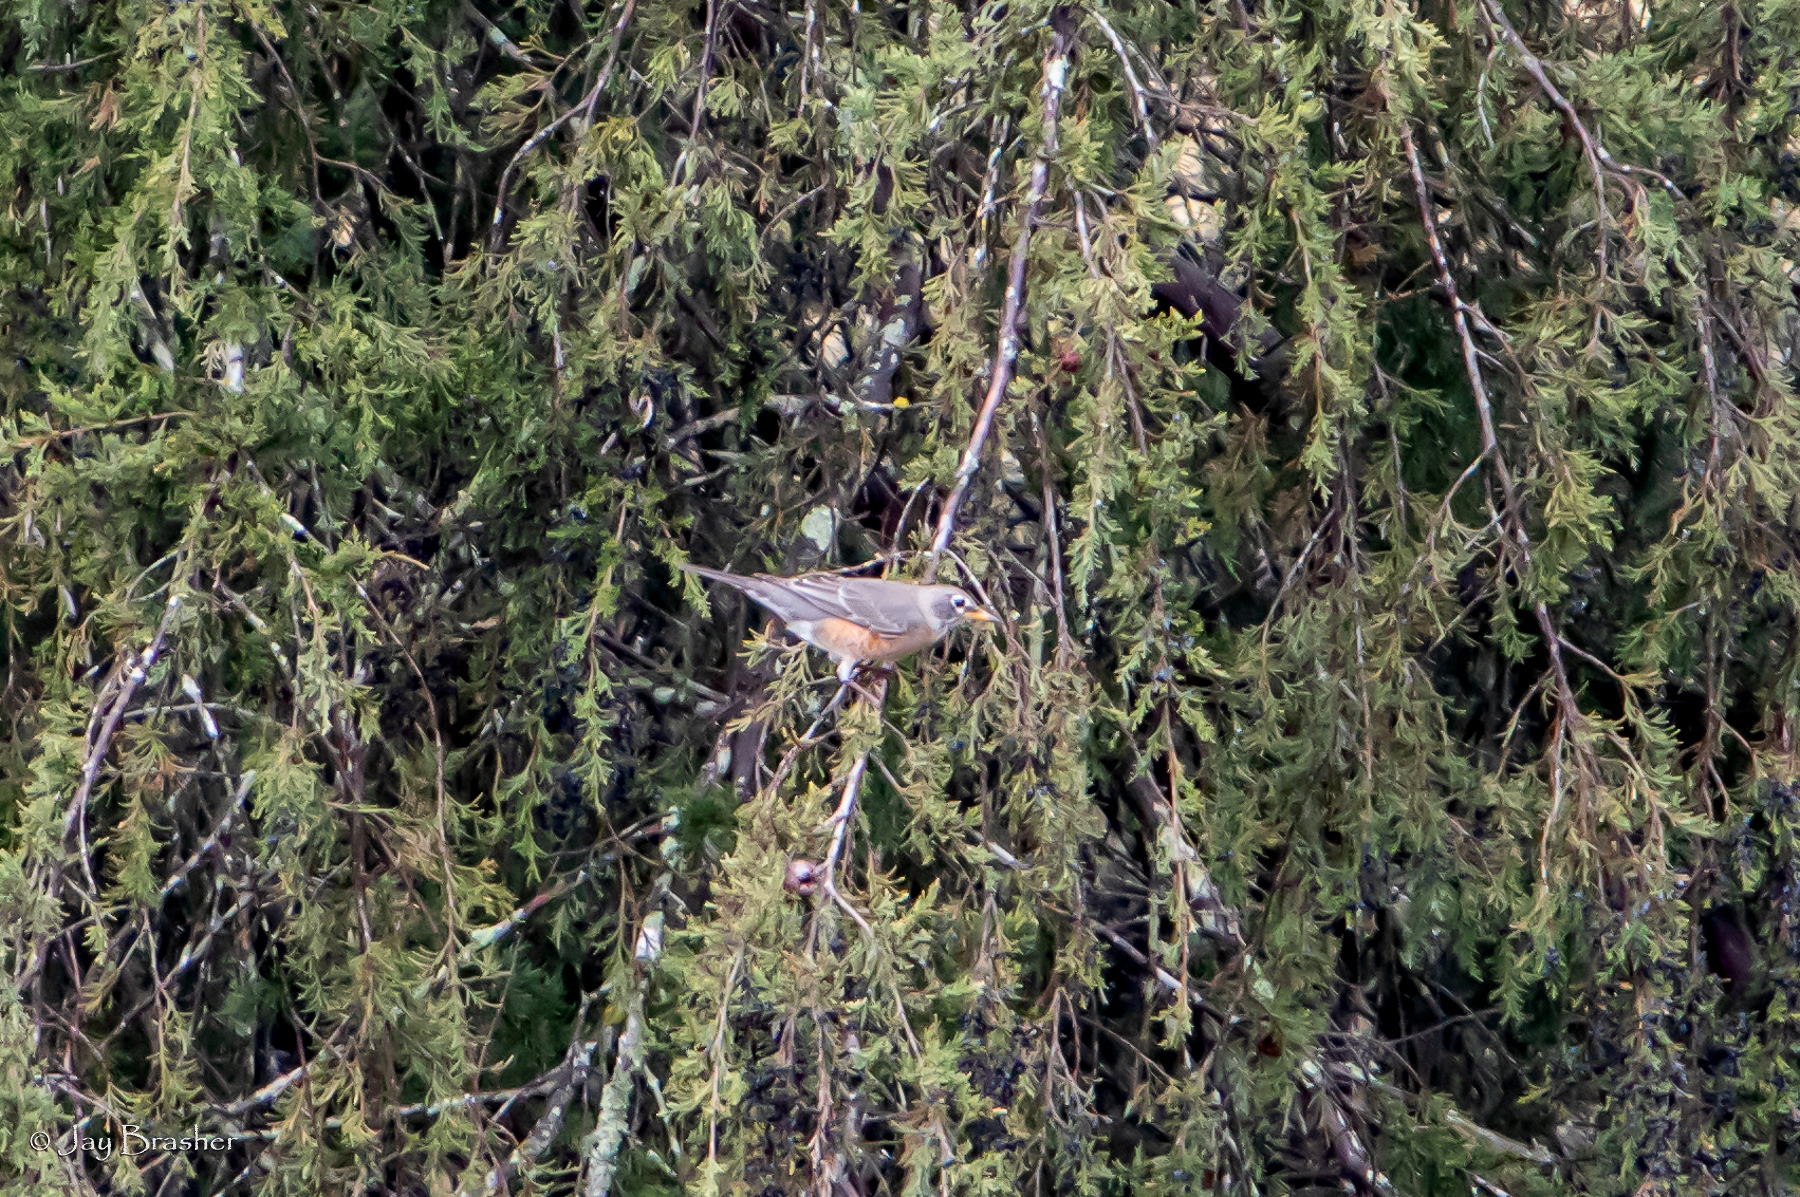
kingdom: Animalia
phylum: Chordata
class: Aves
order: Passeriformes
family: Turdidae
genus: Turdus
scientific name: Turdus migratorius
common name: American robin
